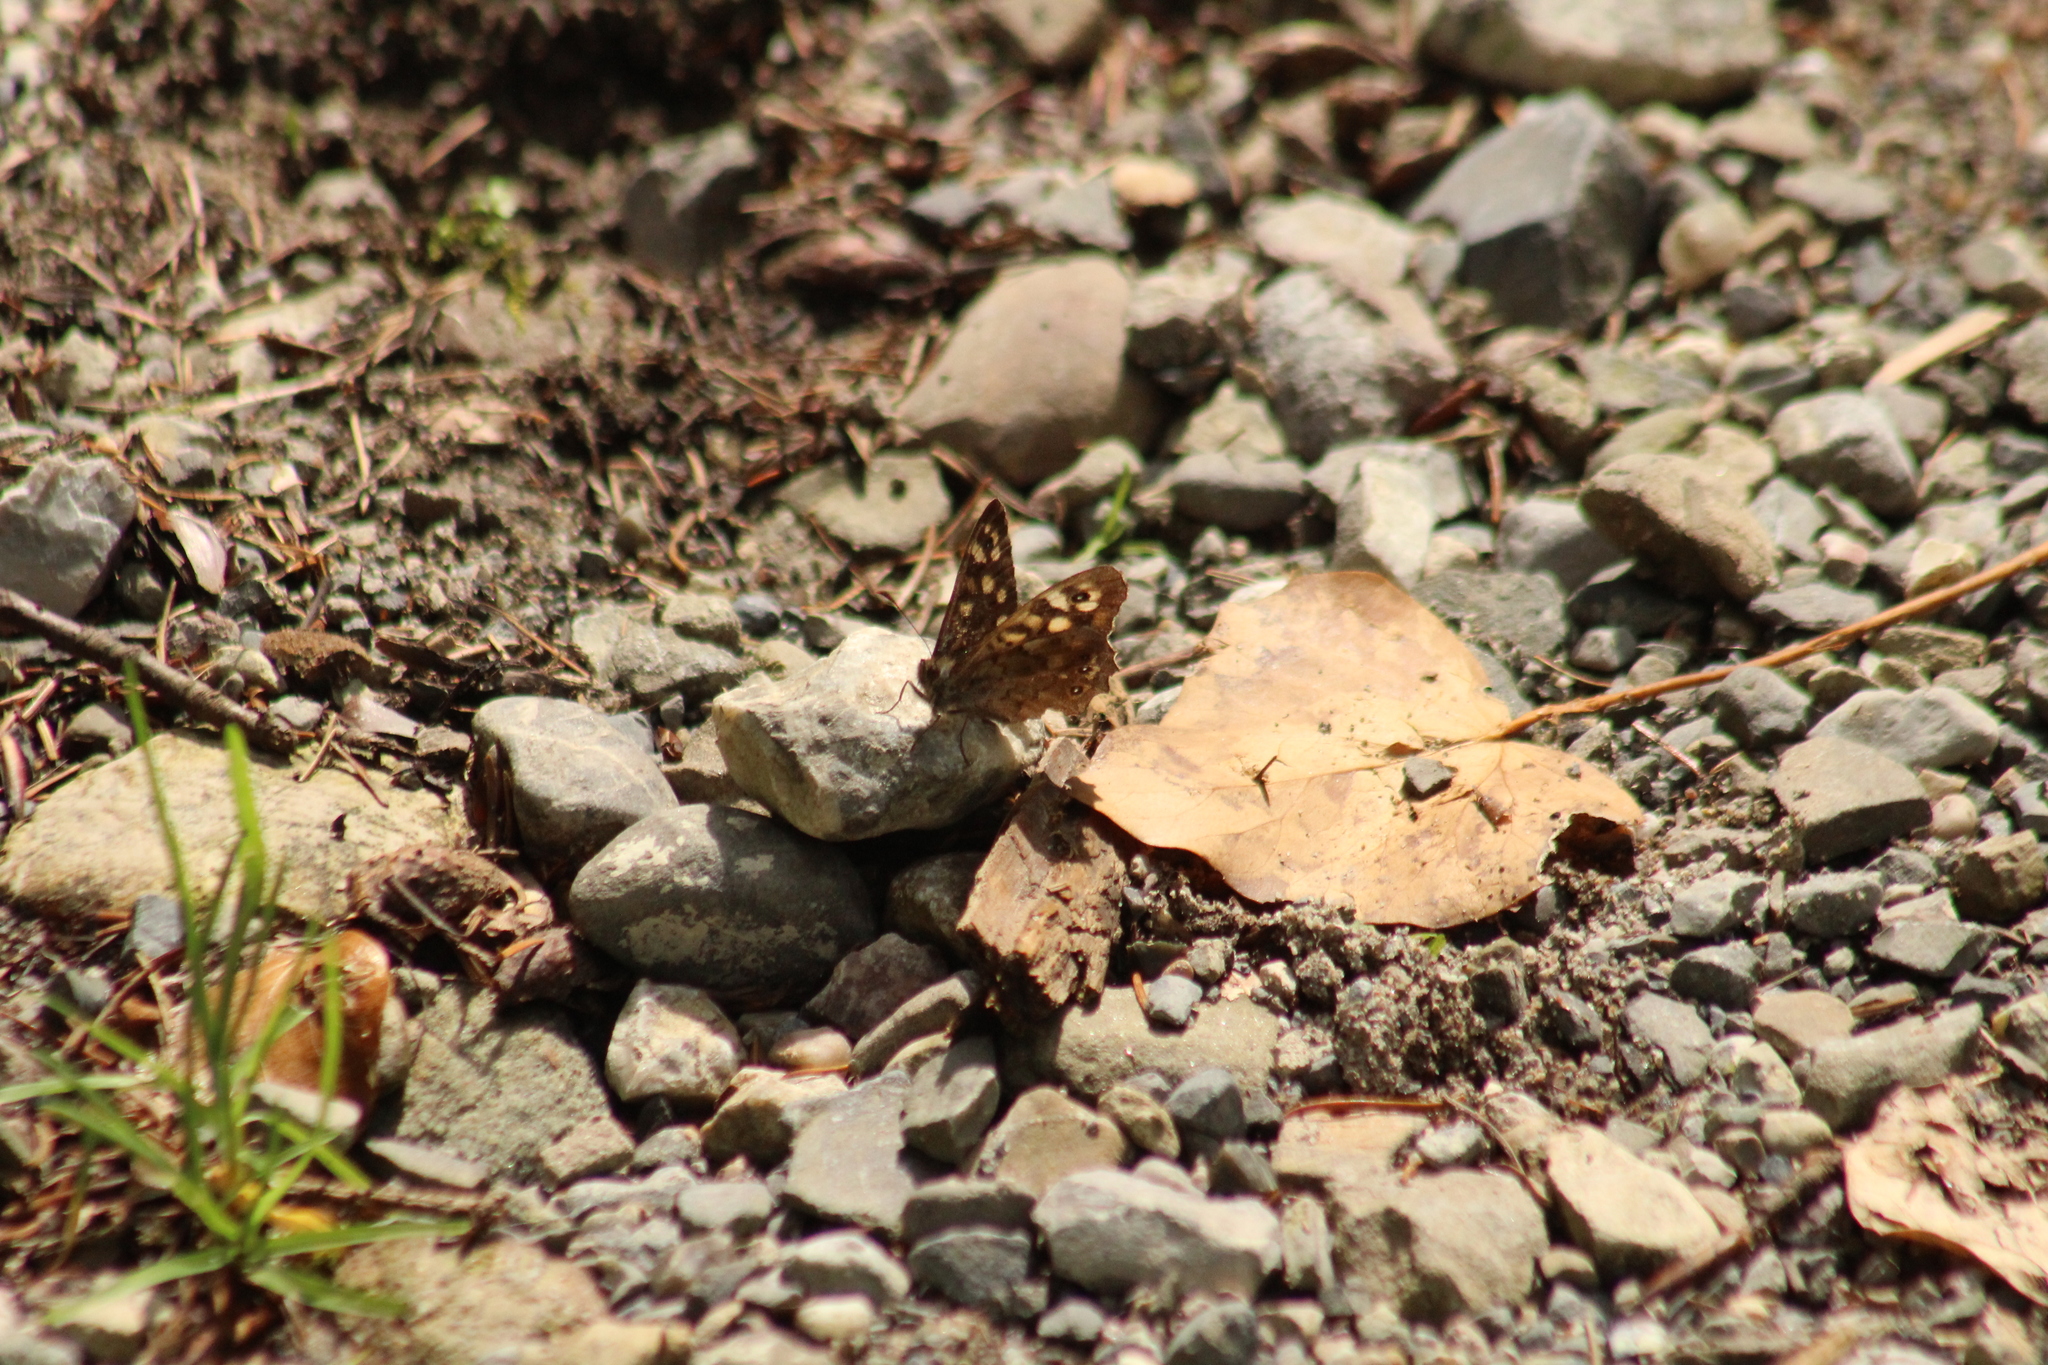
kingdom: Animalia
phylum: Arthropoda
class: Insecta
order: Lepidoptera
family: Nymphalidae
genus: Pararge
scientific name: Pararge aegeria
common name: Speckled wood
